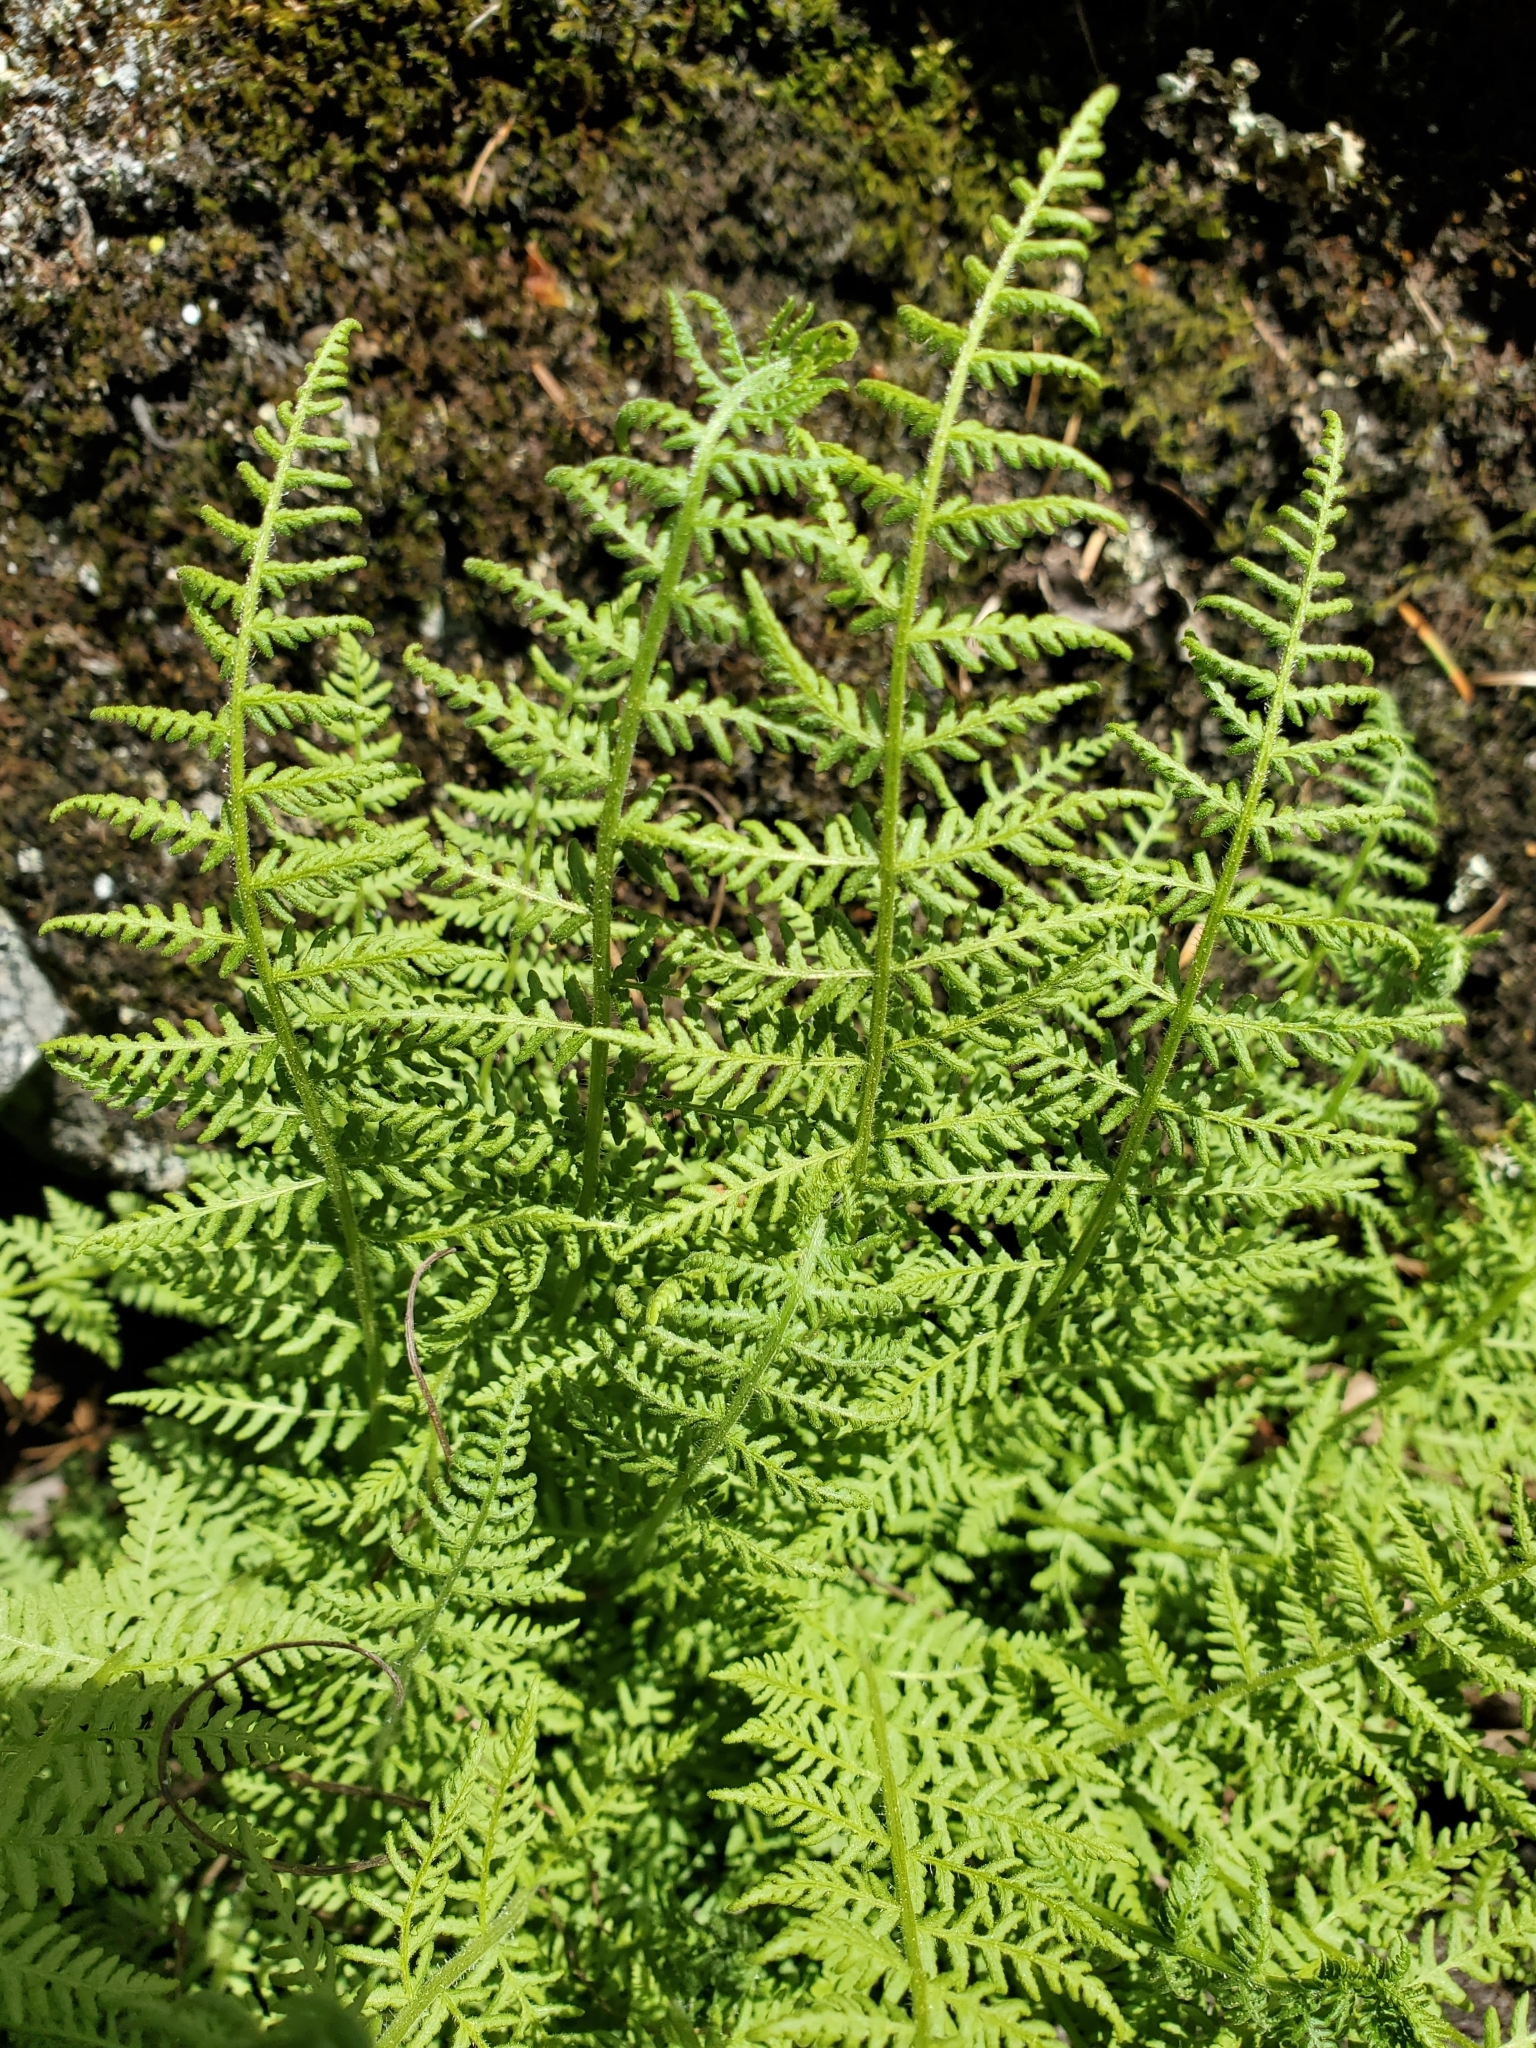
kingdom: Plantae
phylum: Tracheophyta
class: Polypodiopsida
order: Polypodiales
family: Woodsiaceae
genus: Physematium
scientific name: Physematium scopulinum
